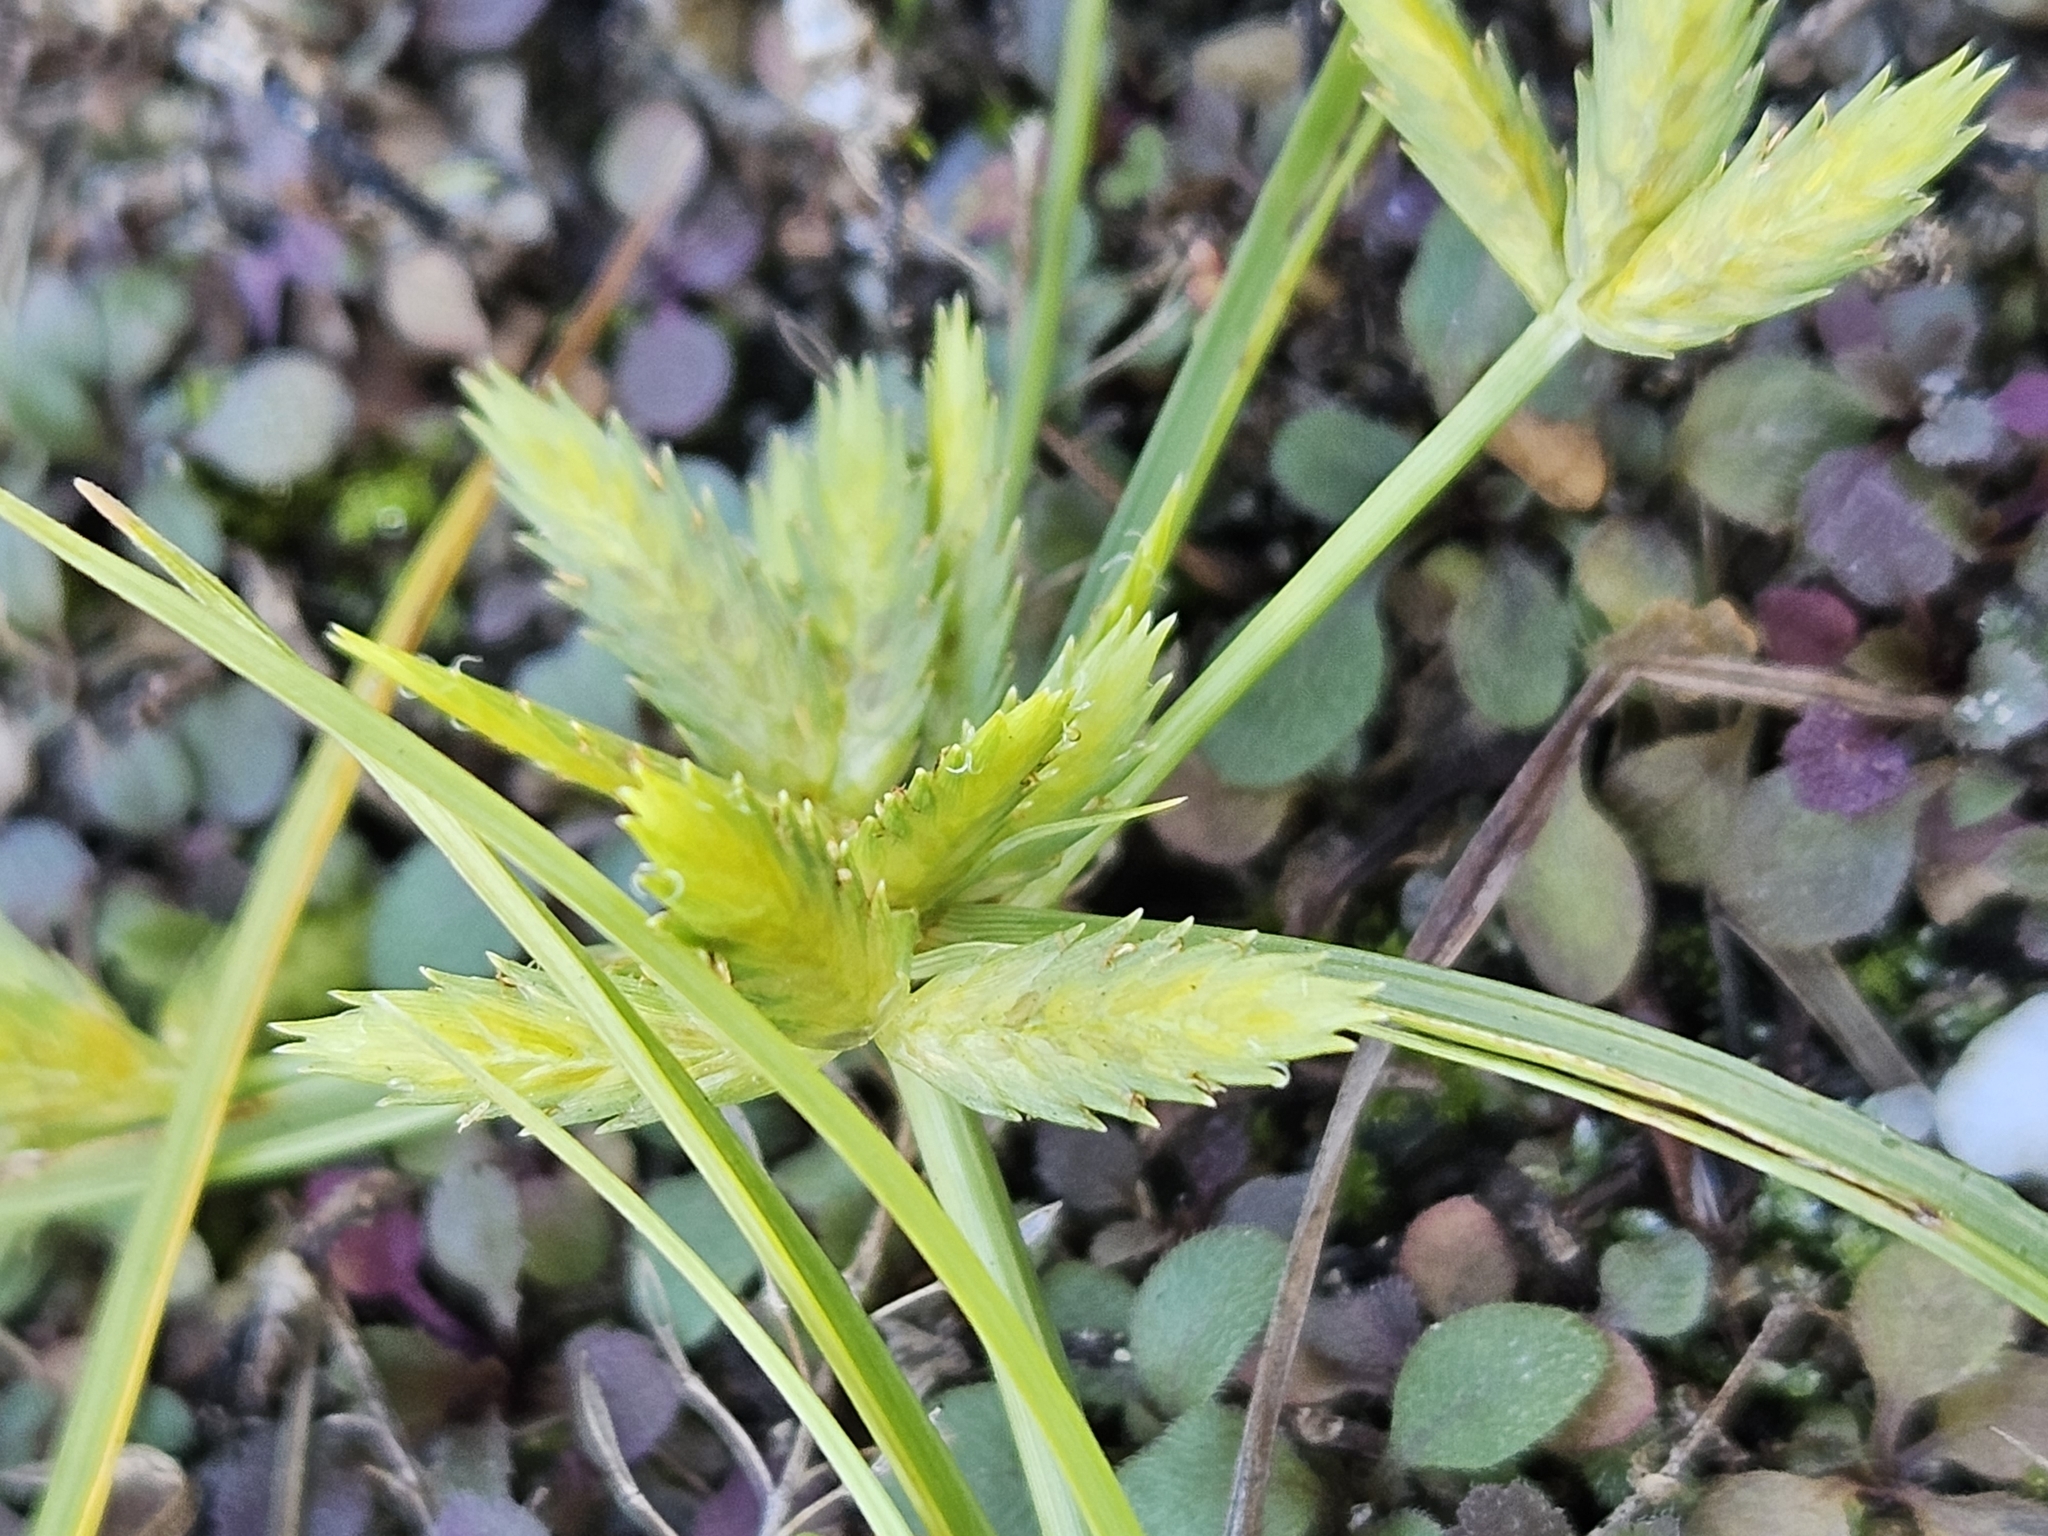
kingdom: Plantae
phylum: Tracheophyta
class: Liliopsida
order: Poales
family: Cyperaceae
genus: Cyperus
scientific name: Cyperus compressus
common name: Poorland flatsedge
